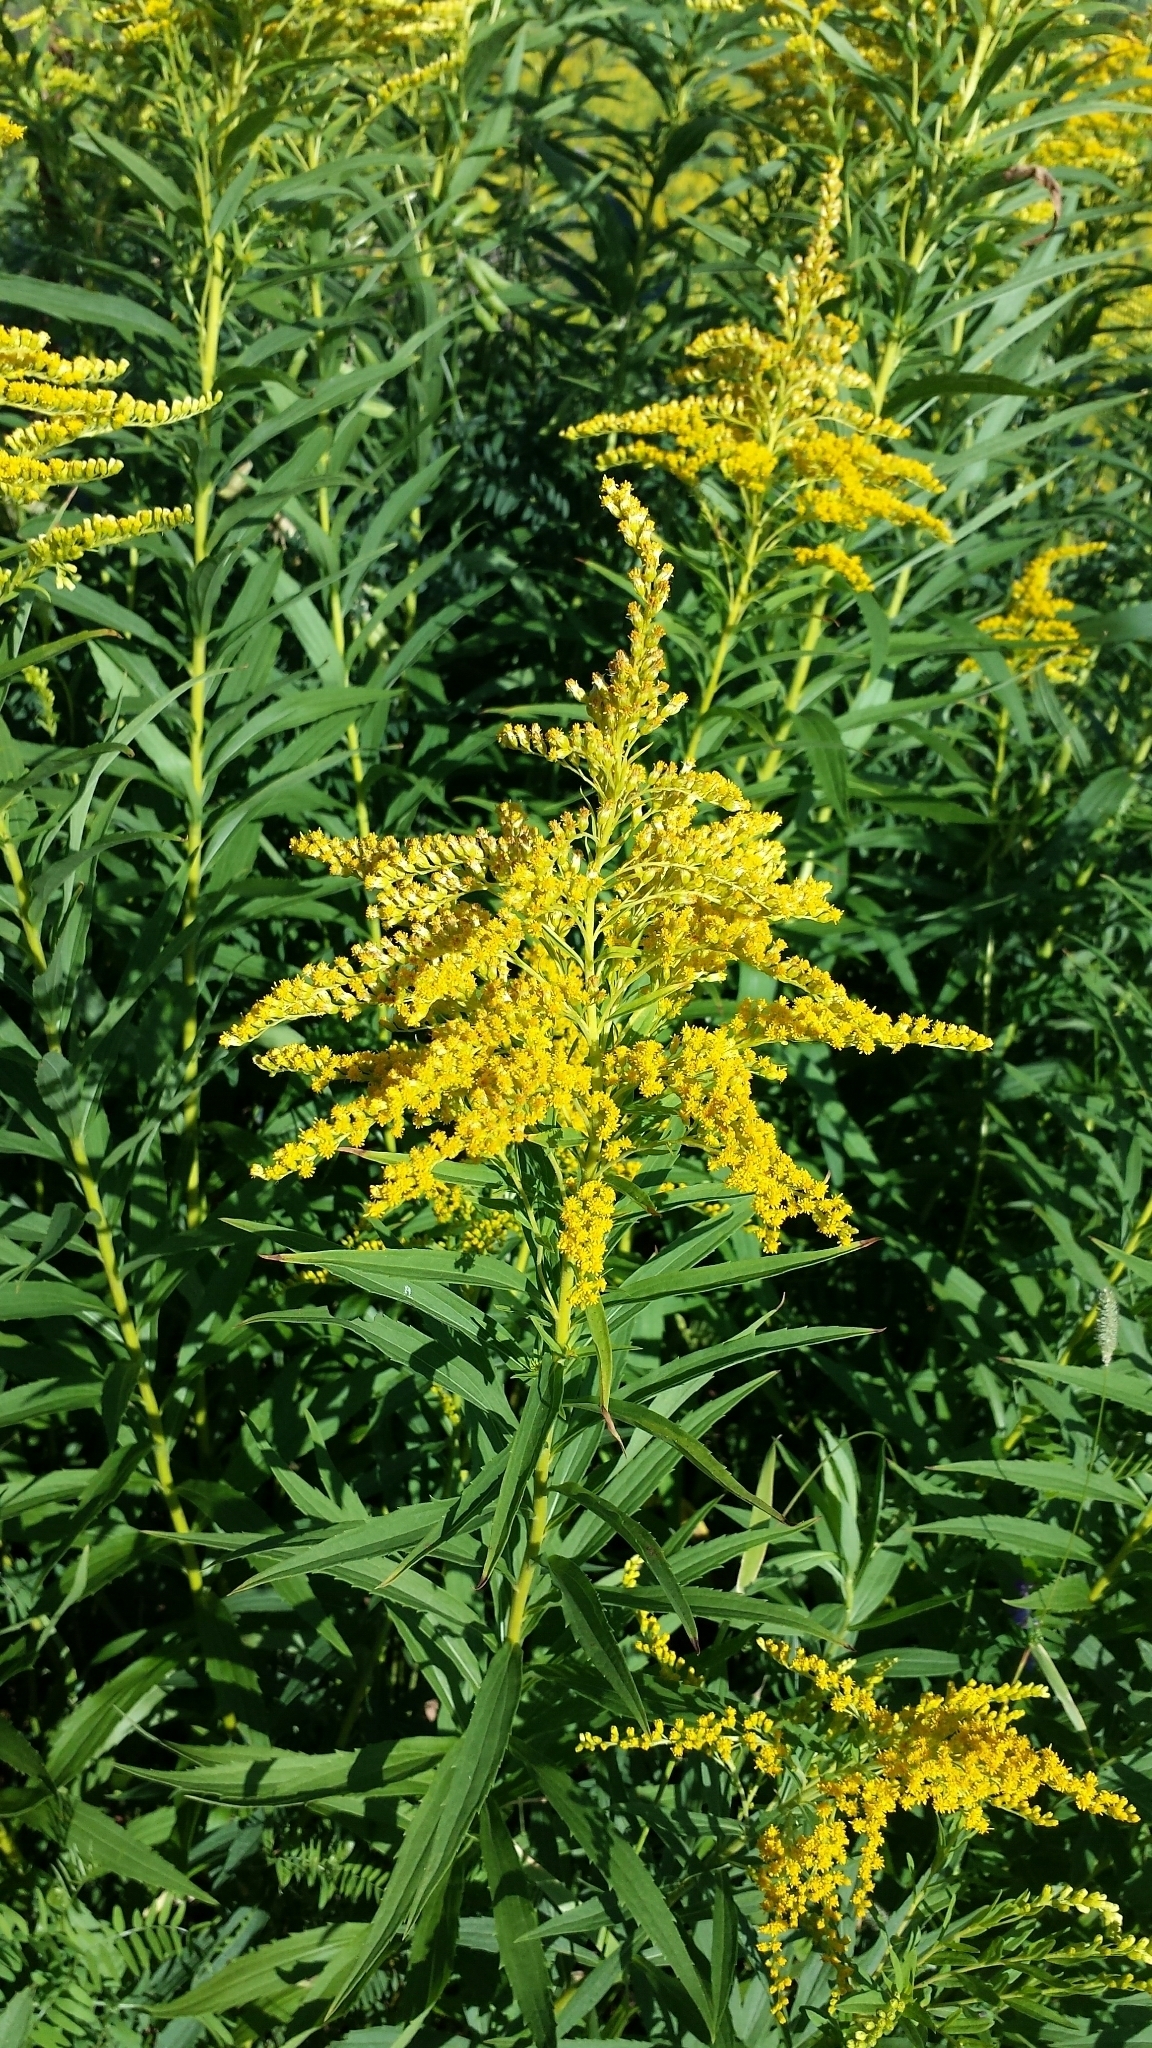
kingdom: Plantae
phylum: Tracheophyta
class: Magnoliopsida
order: Asterales
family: Asteraceae
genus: Solidago
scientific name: Solidago juncea
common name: Early goldenrod
